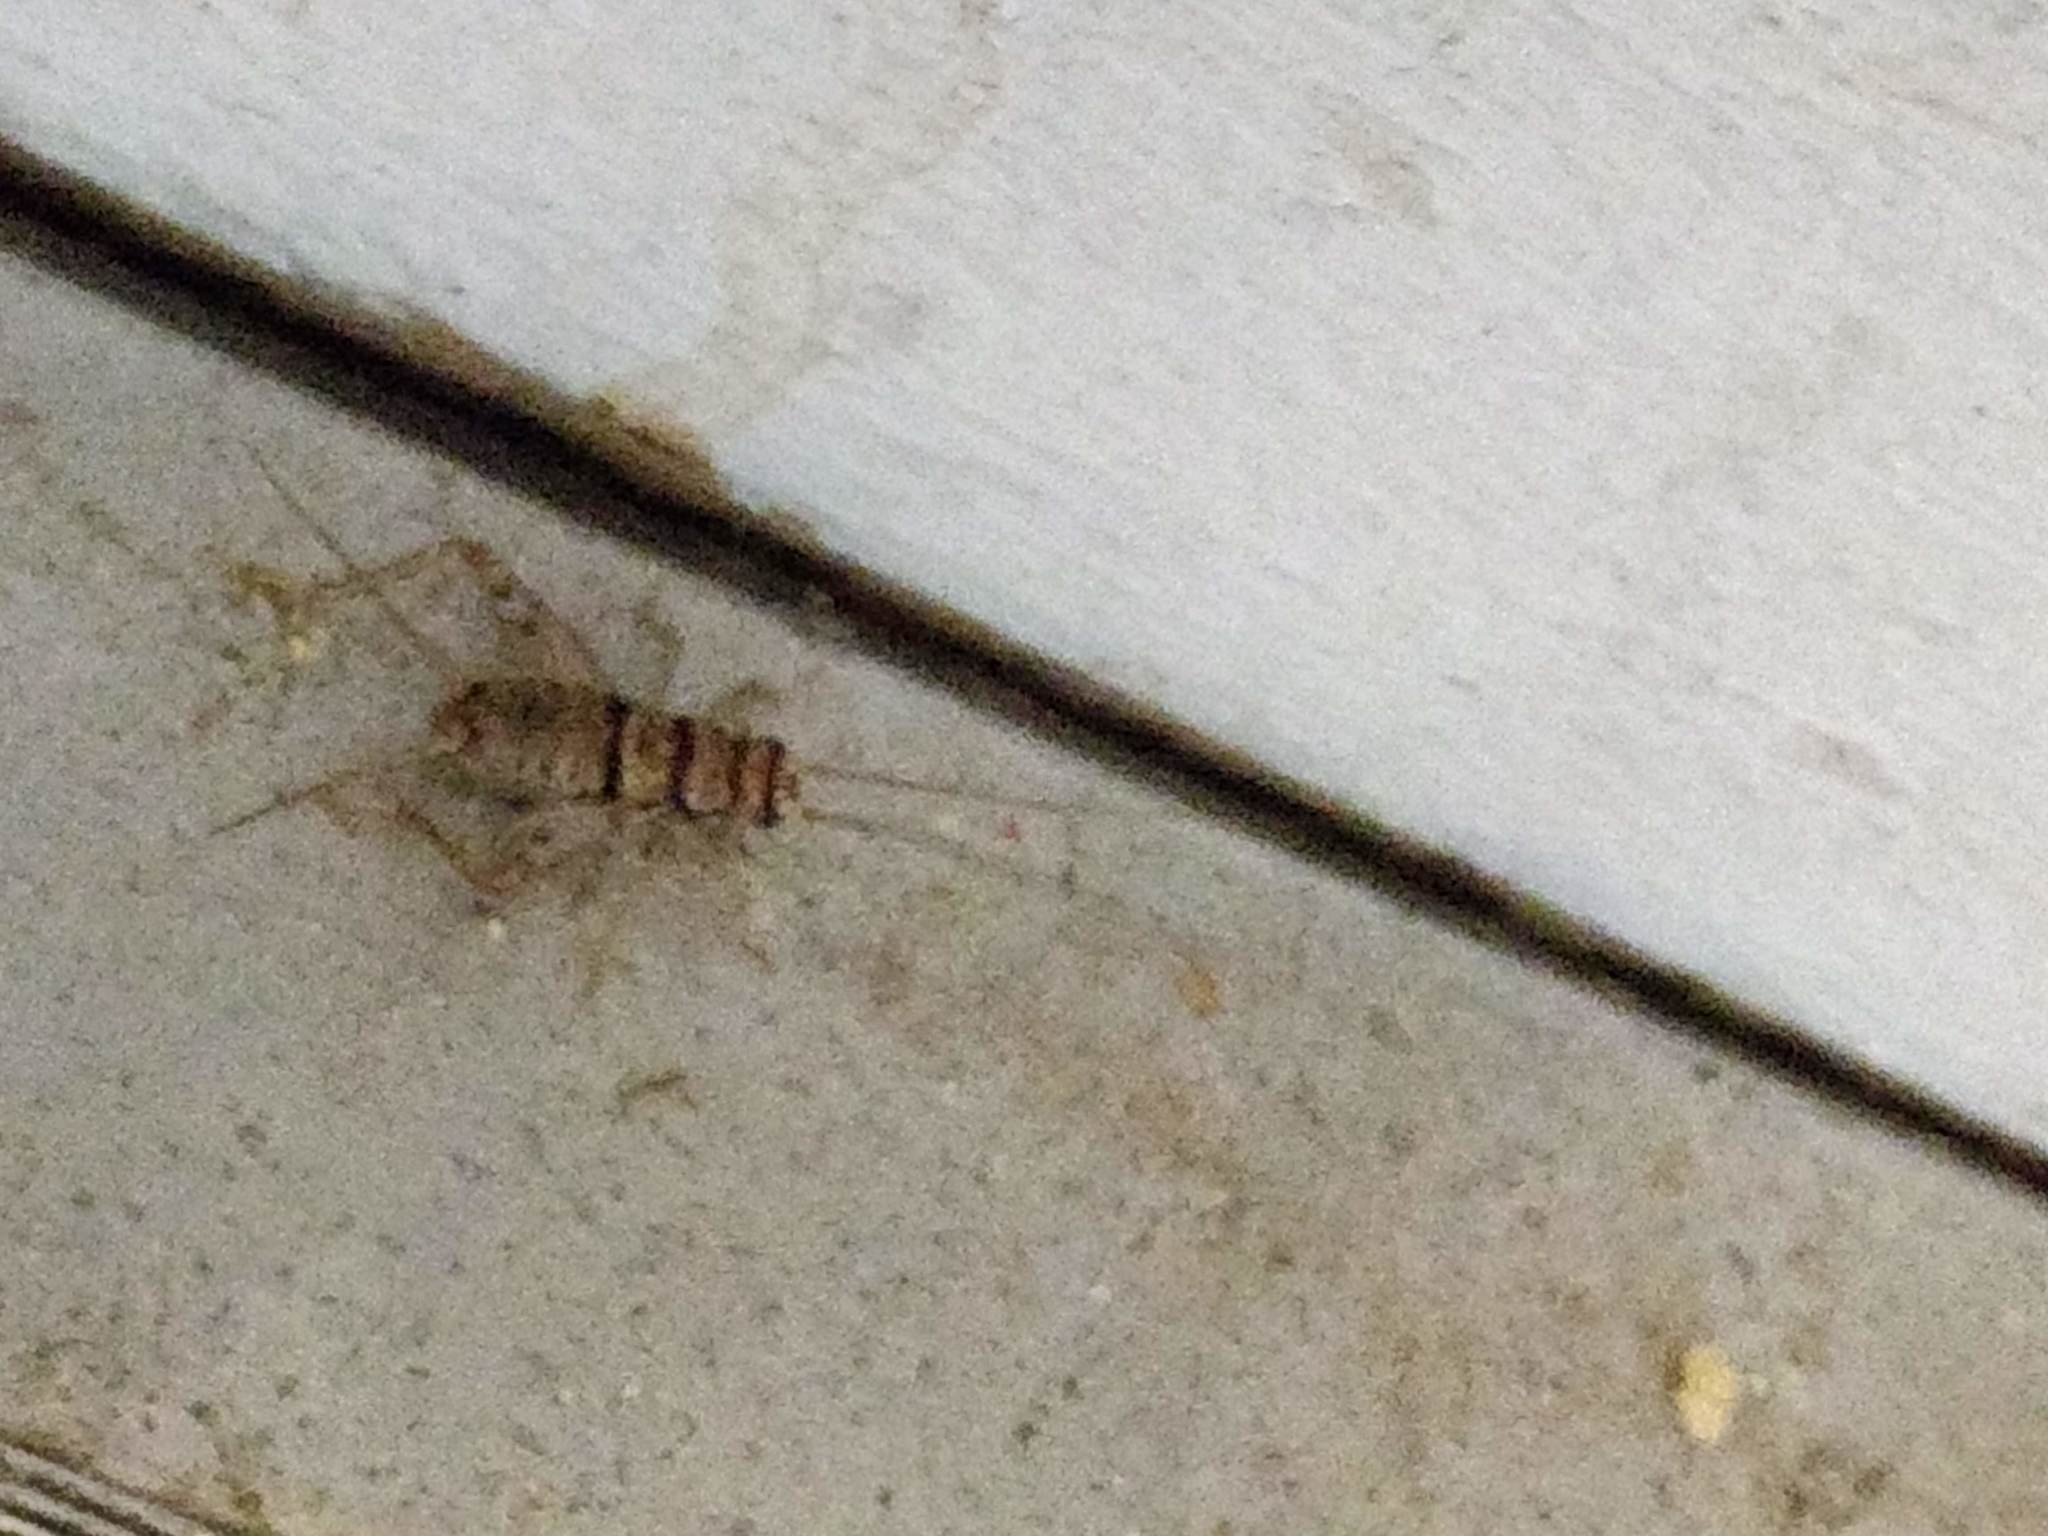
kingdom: Animalia
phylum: Arthropoda
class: Insecta
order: Orthoptera
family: Gryllidae
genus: Gryllodes
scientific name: Gryllodes sigillatus
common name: Tropical house cricket
